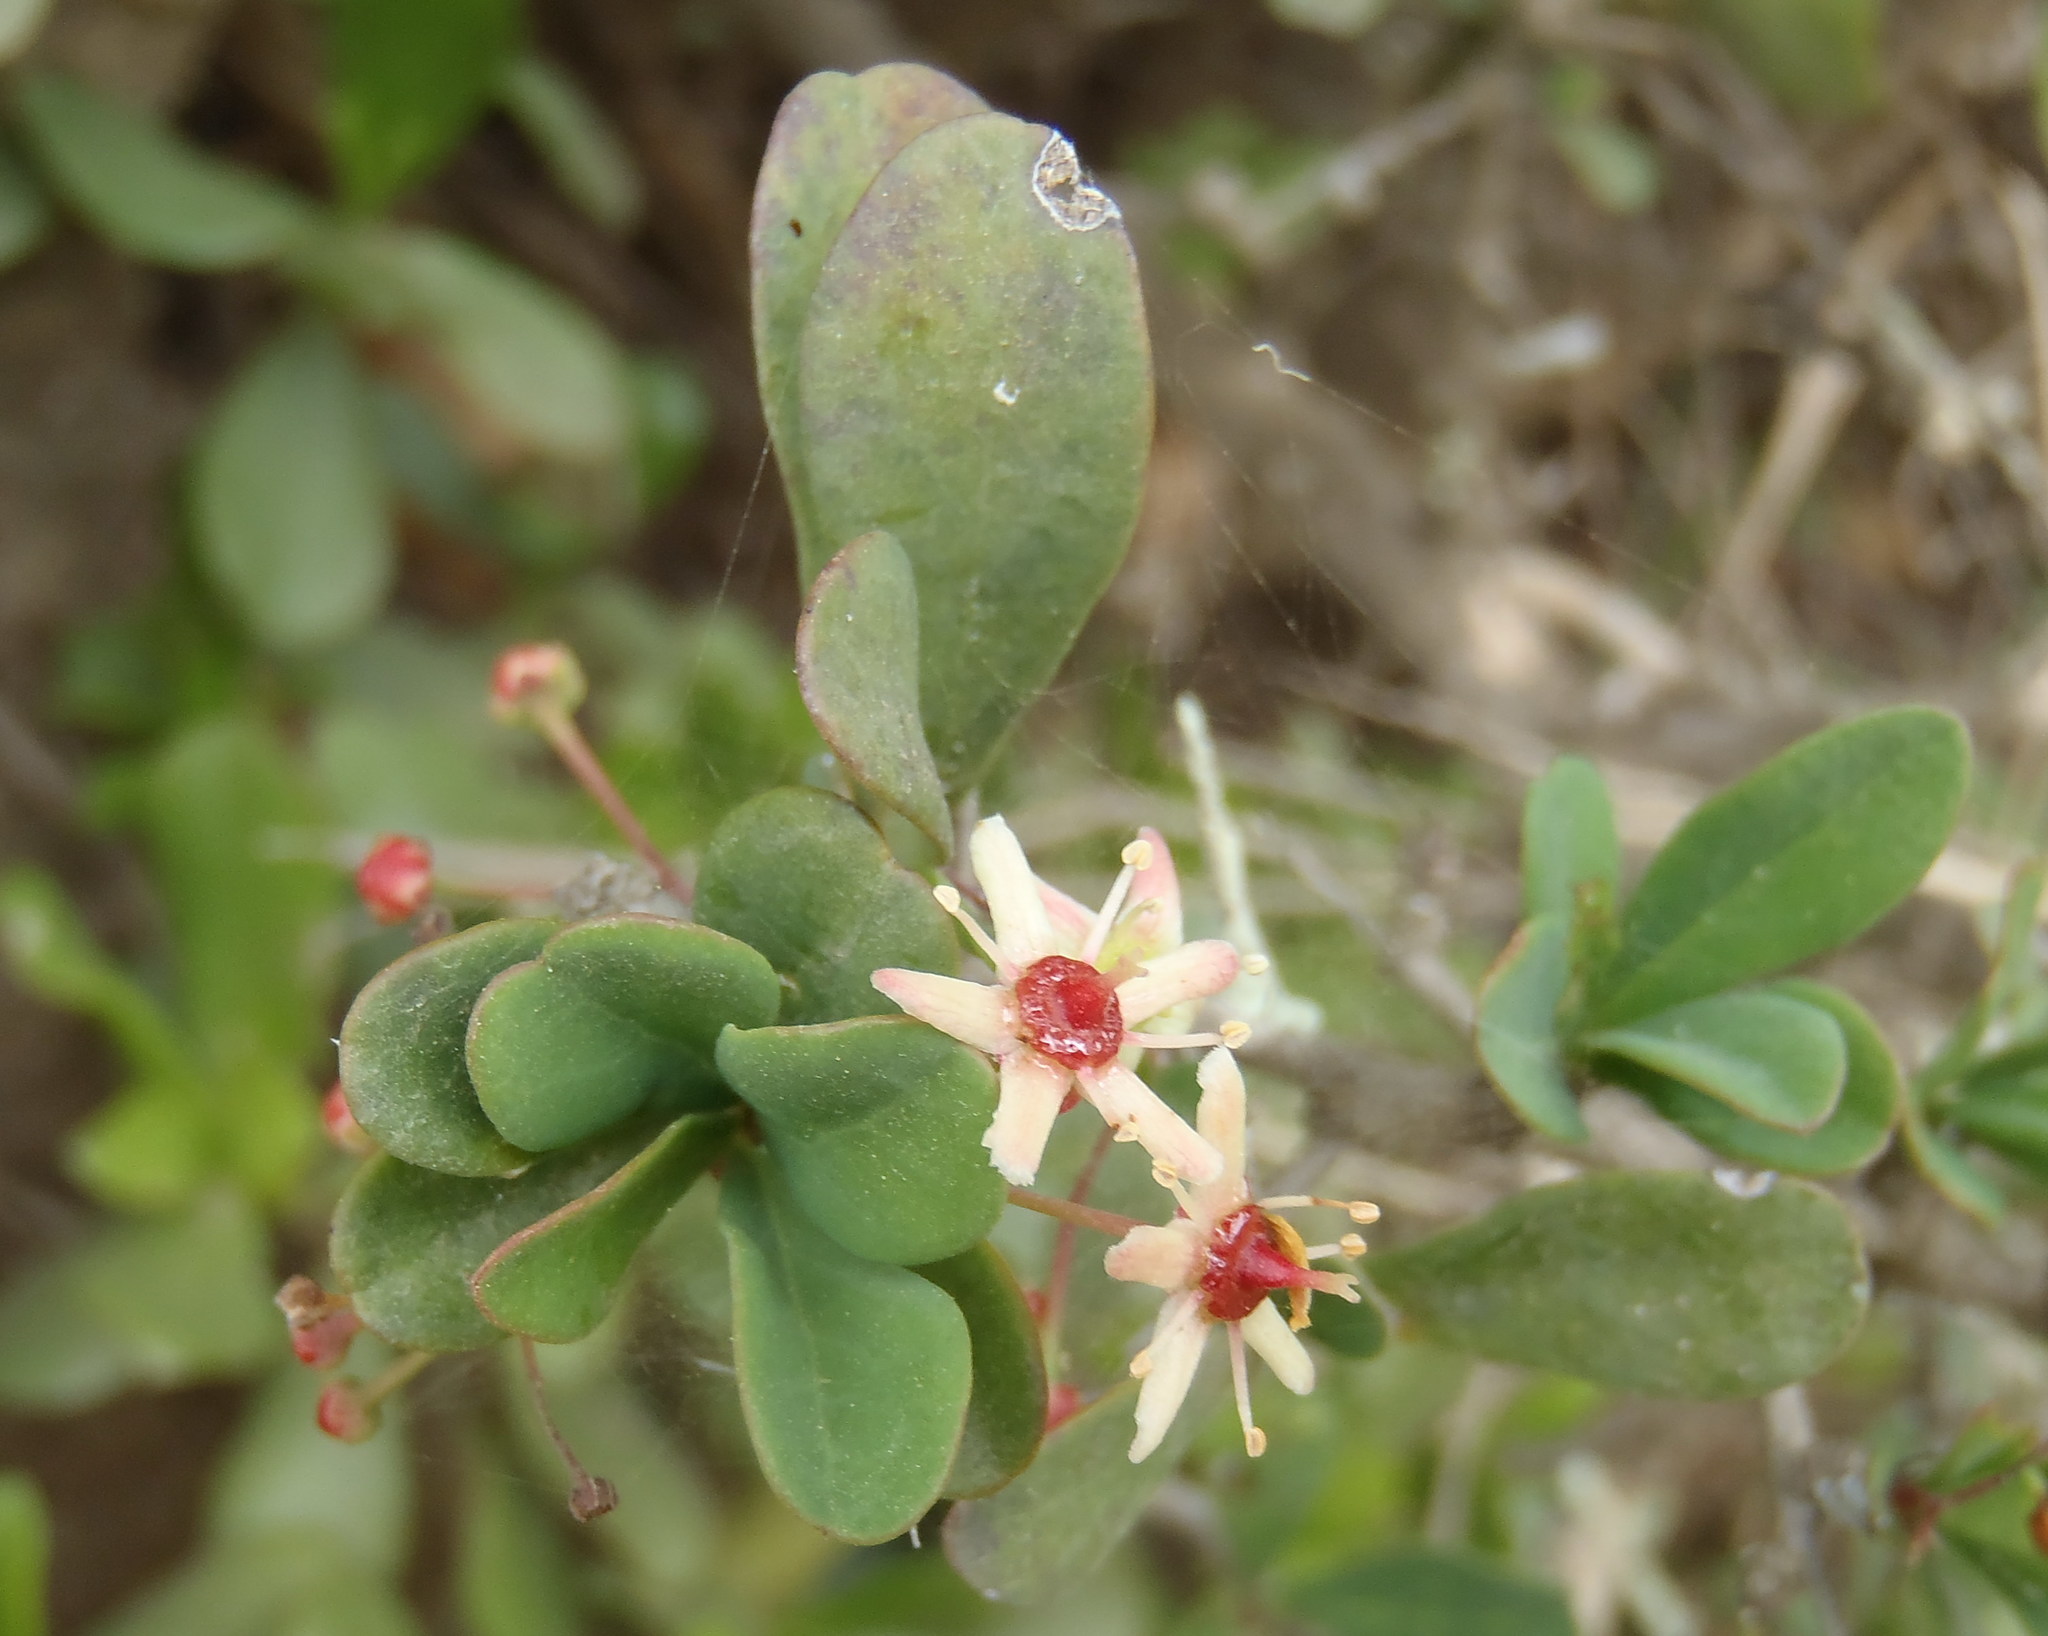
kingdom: Plantae
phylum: Tracheophyta
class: Magnoliopsida
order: Celastrales
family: Celastraceae
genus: Putterlickia
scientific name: Putterlickia pyracantha
